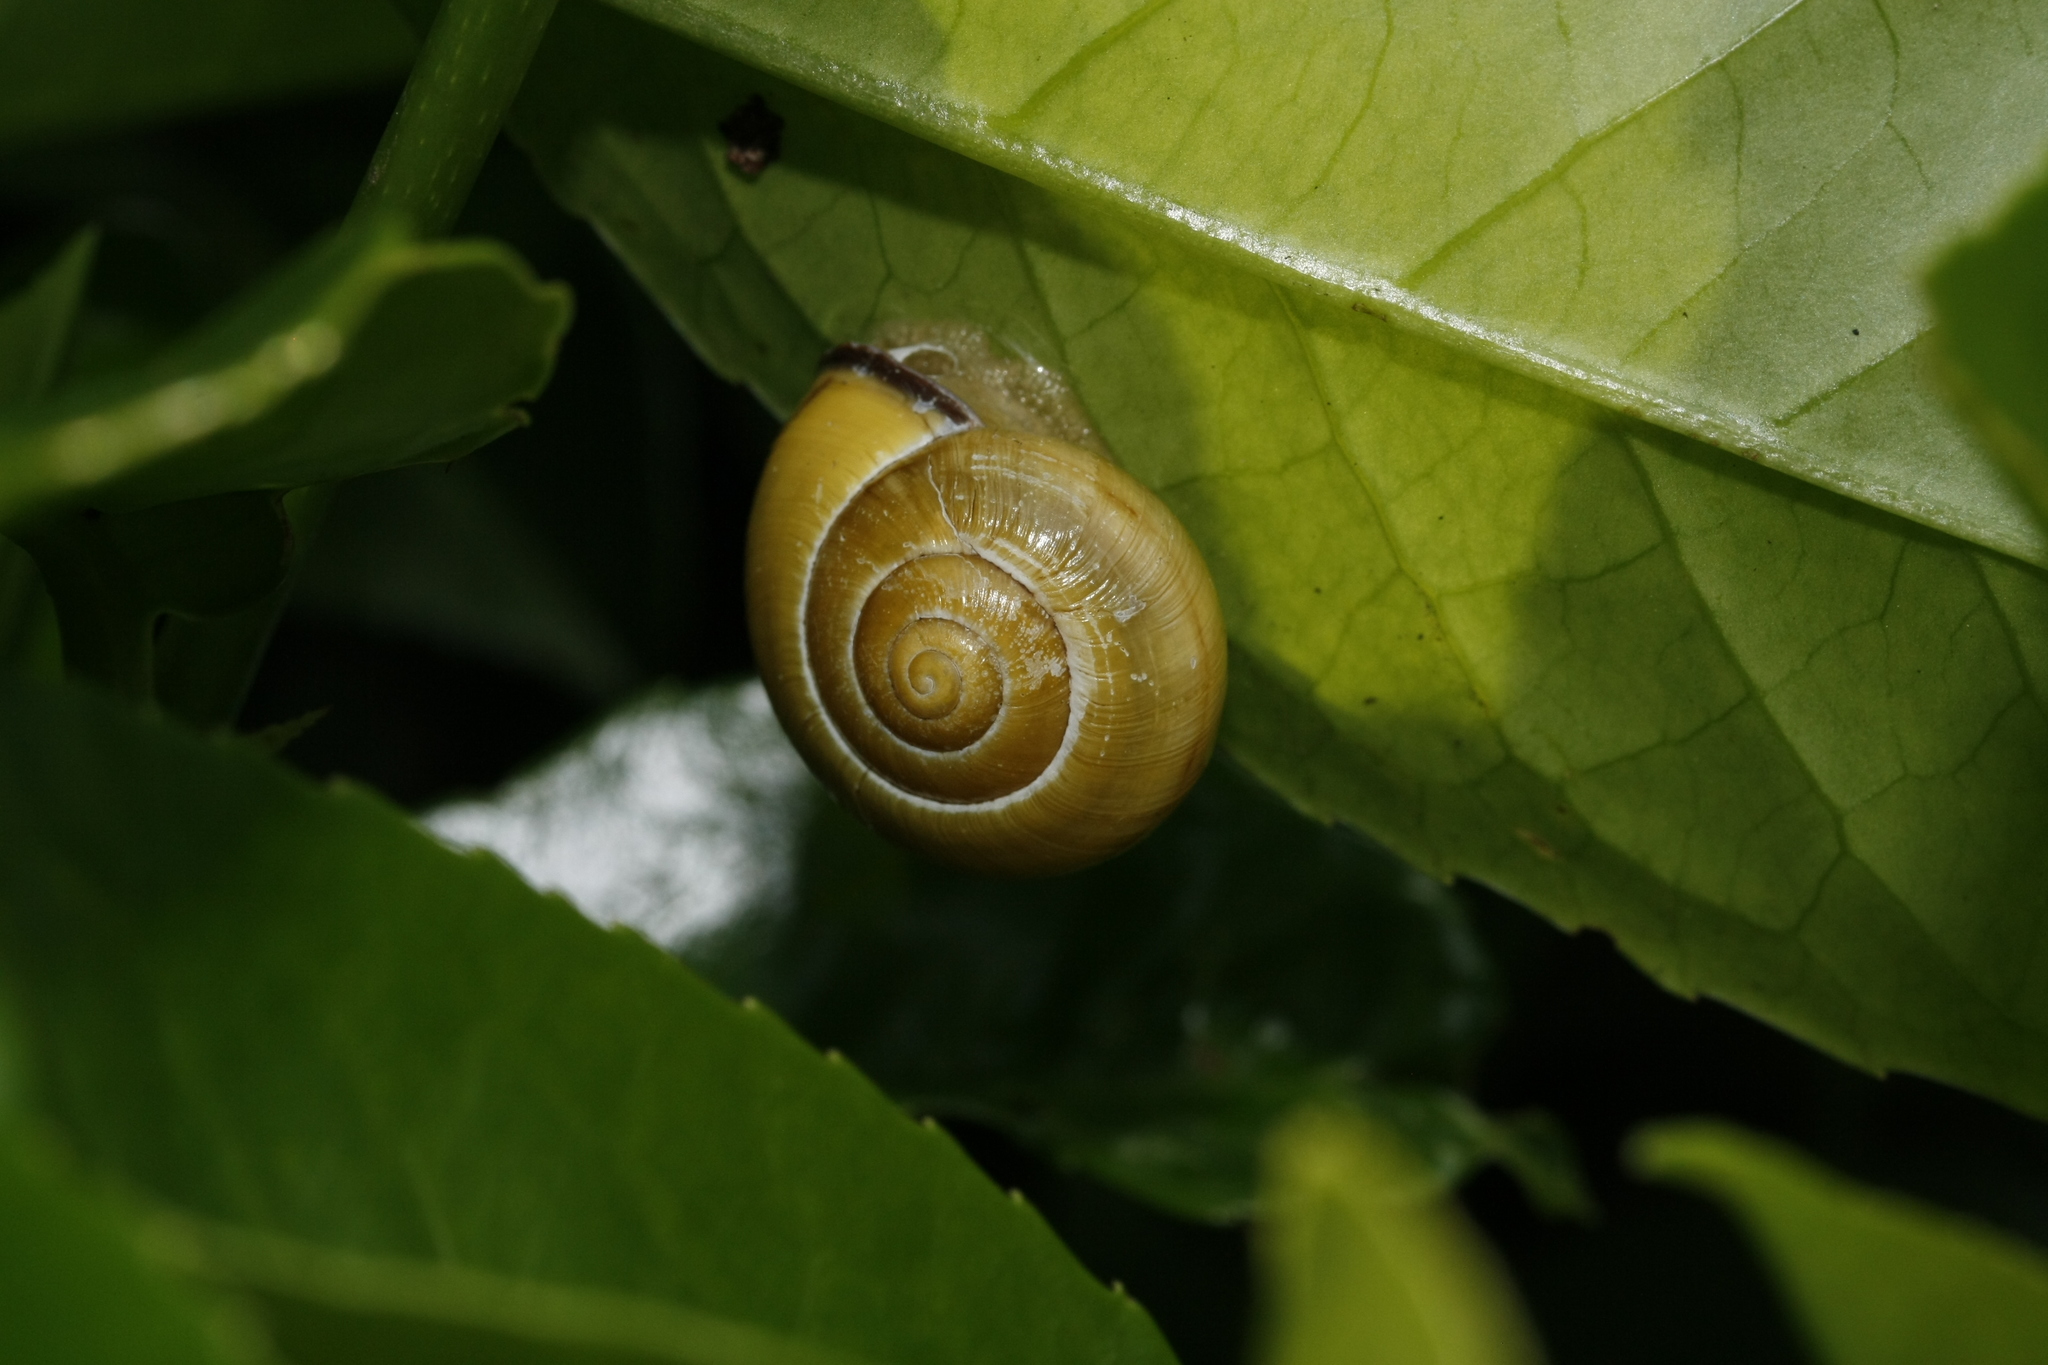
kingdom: Animalia
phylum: Mollusca
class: Gastropoda
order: Stylommatophora
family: Helicidae
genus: Cepaea
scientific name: Cepaea nemoralis
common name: Grovesnail
